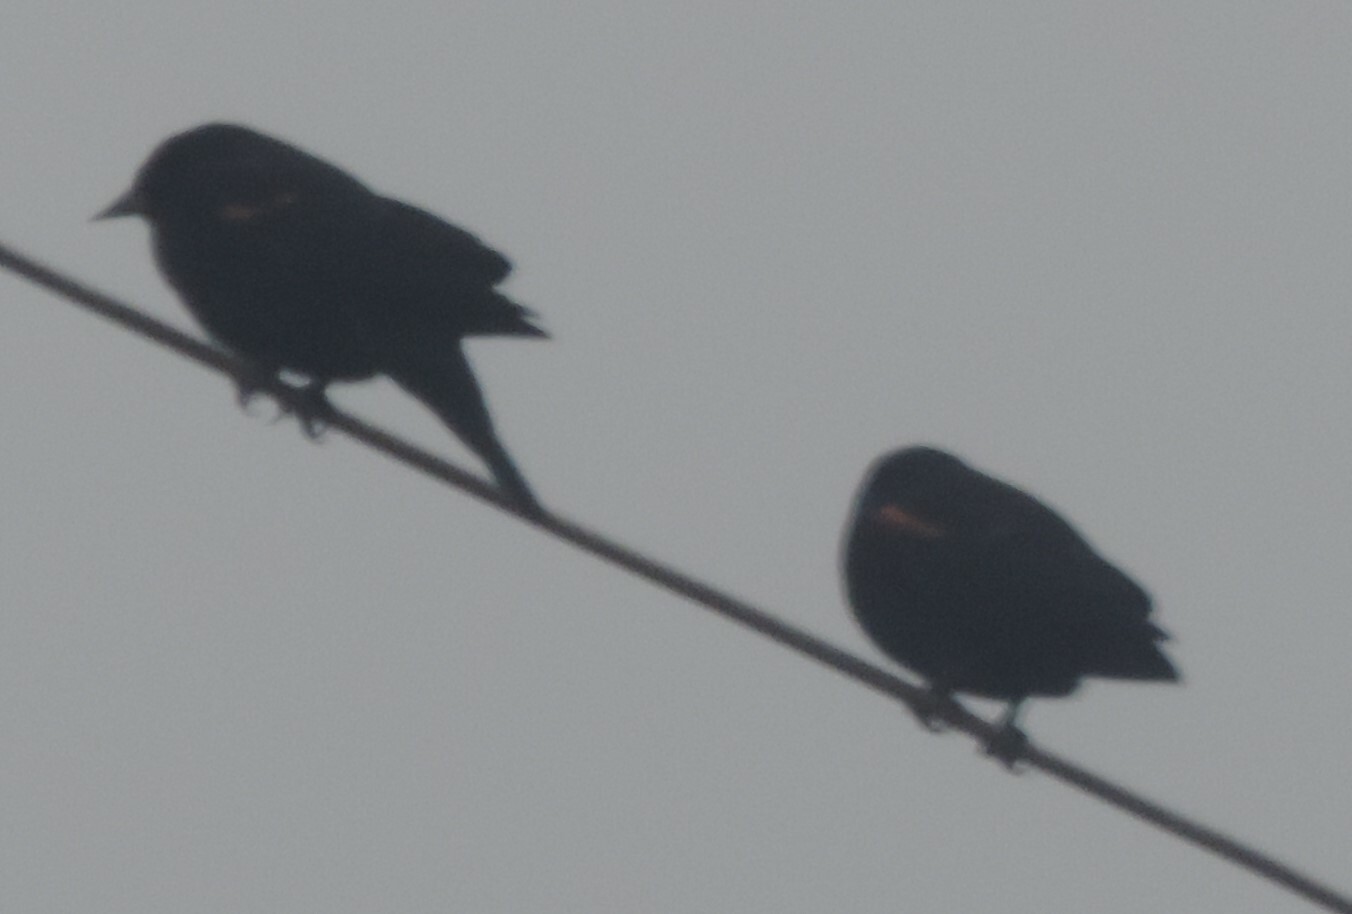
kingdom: Animalia
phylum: Chordata
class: Aves
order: Passeriformes
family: Icteridae
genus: Agelaius
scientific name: Agelaius phoeniceus
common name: Red-winged blackbird
